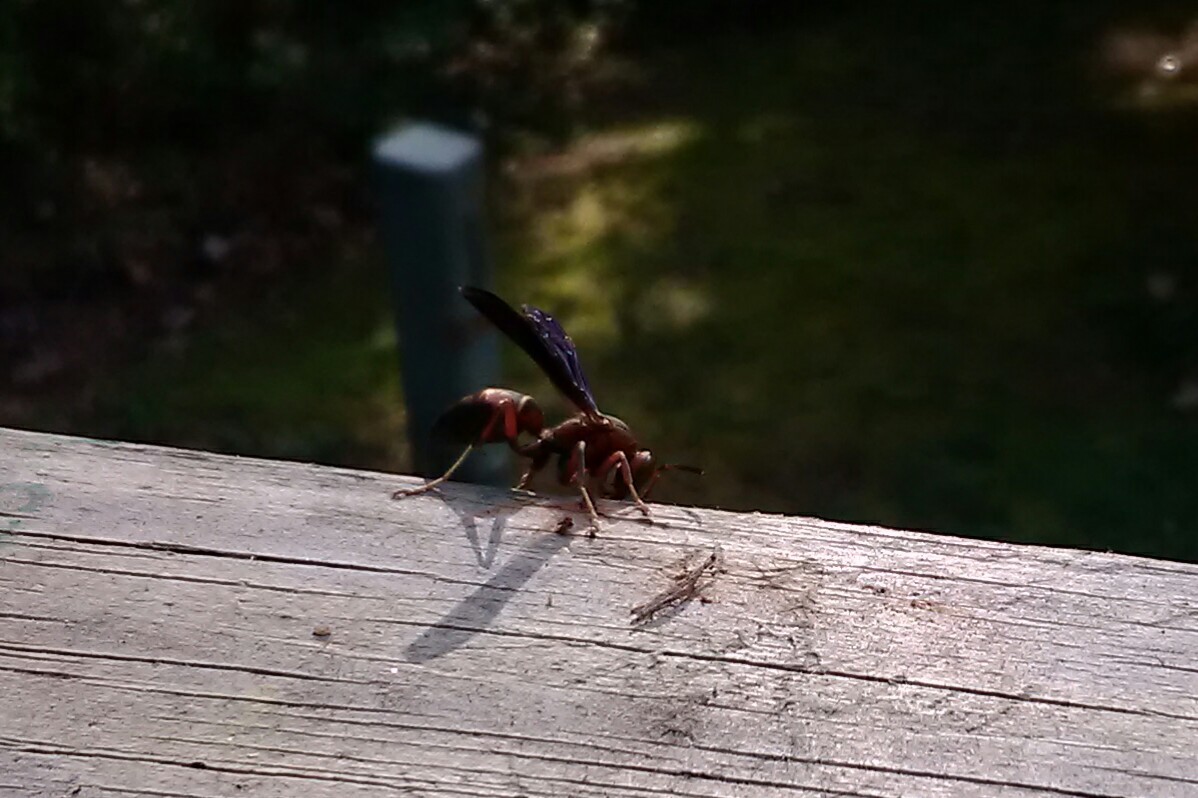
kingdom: Animalia
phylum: Arthropoda
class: Insecta
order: Hymenoptera
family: Vespidae
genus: Fuscopolistes
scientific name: Fuscopolistes
